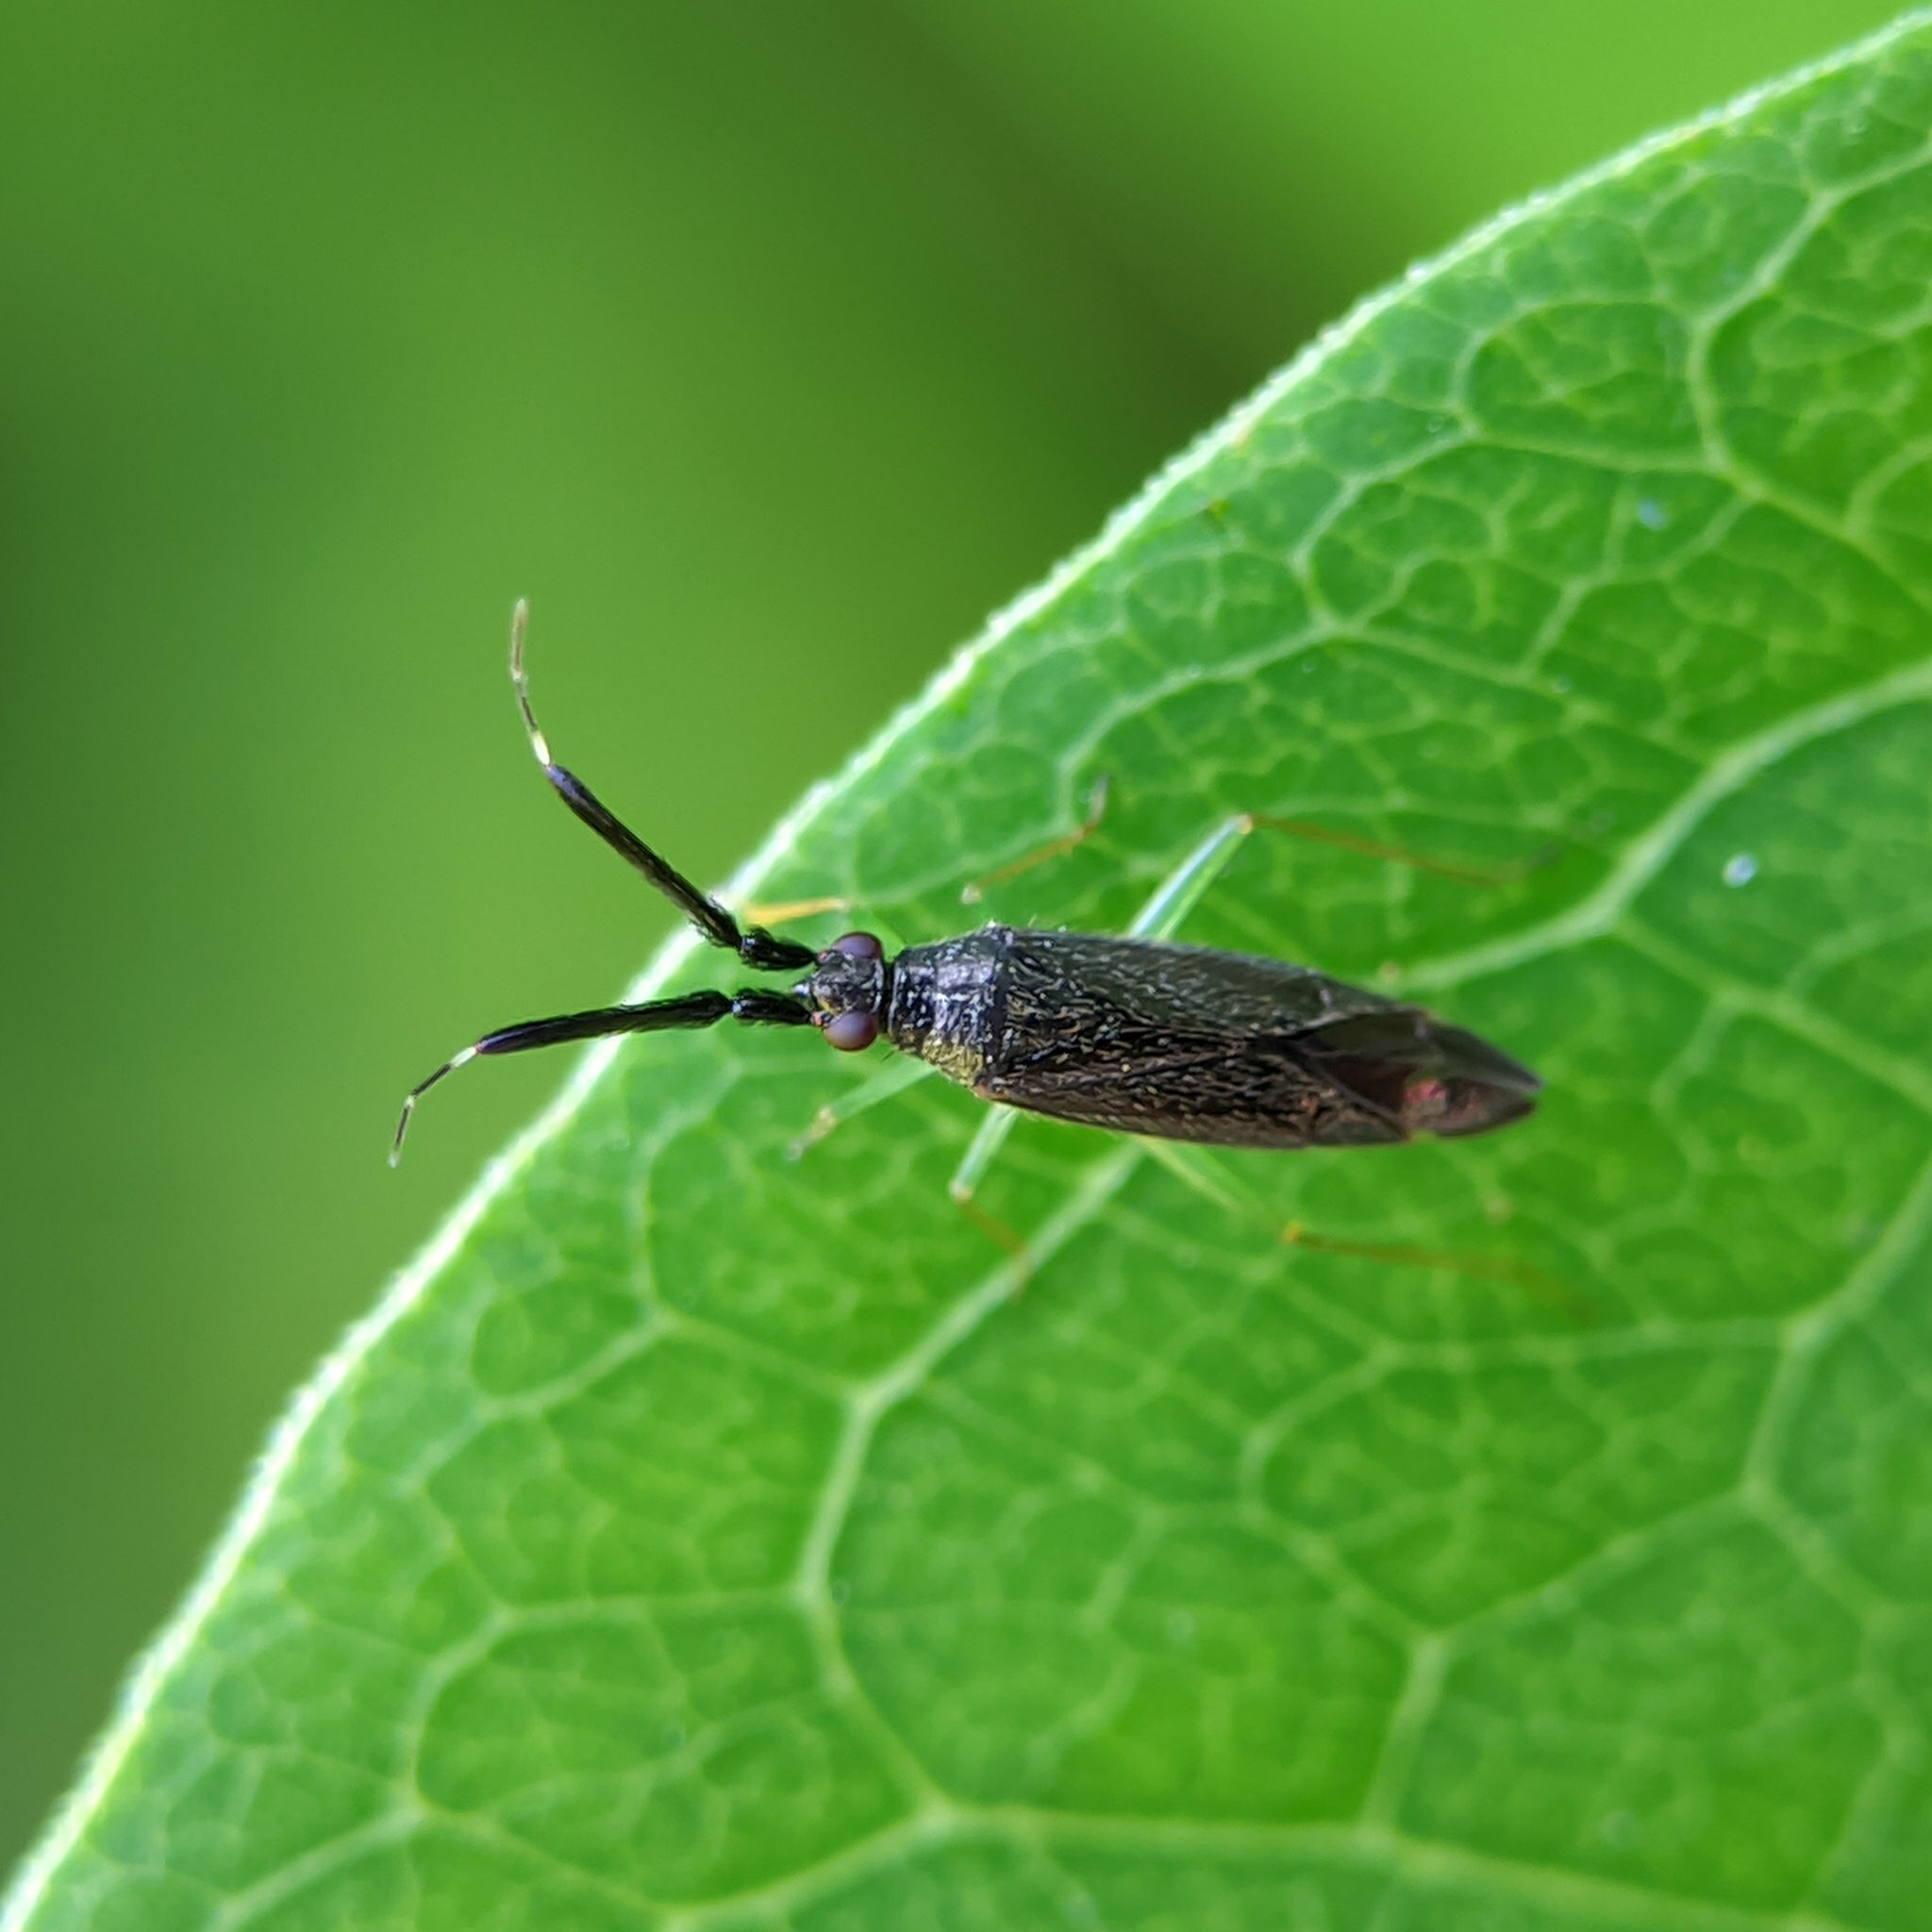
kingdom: Animalia
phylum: Arthropoda
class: Insecta
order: Hemiptera
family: Miridae
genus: Heterotoma
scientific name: Heterotoma planicornis
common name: Plant bug
